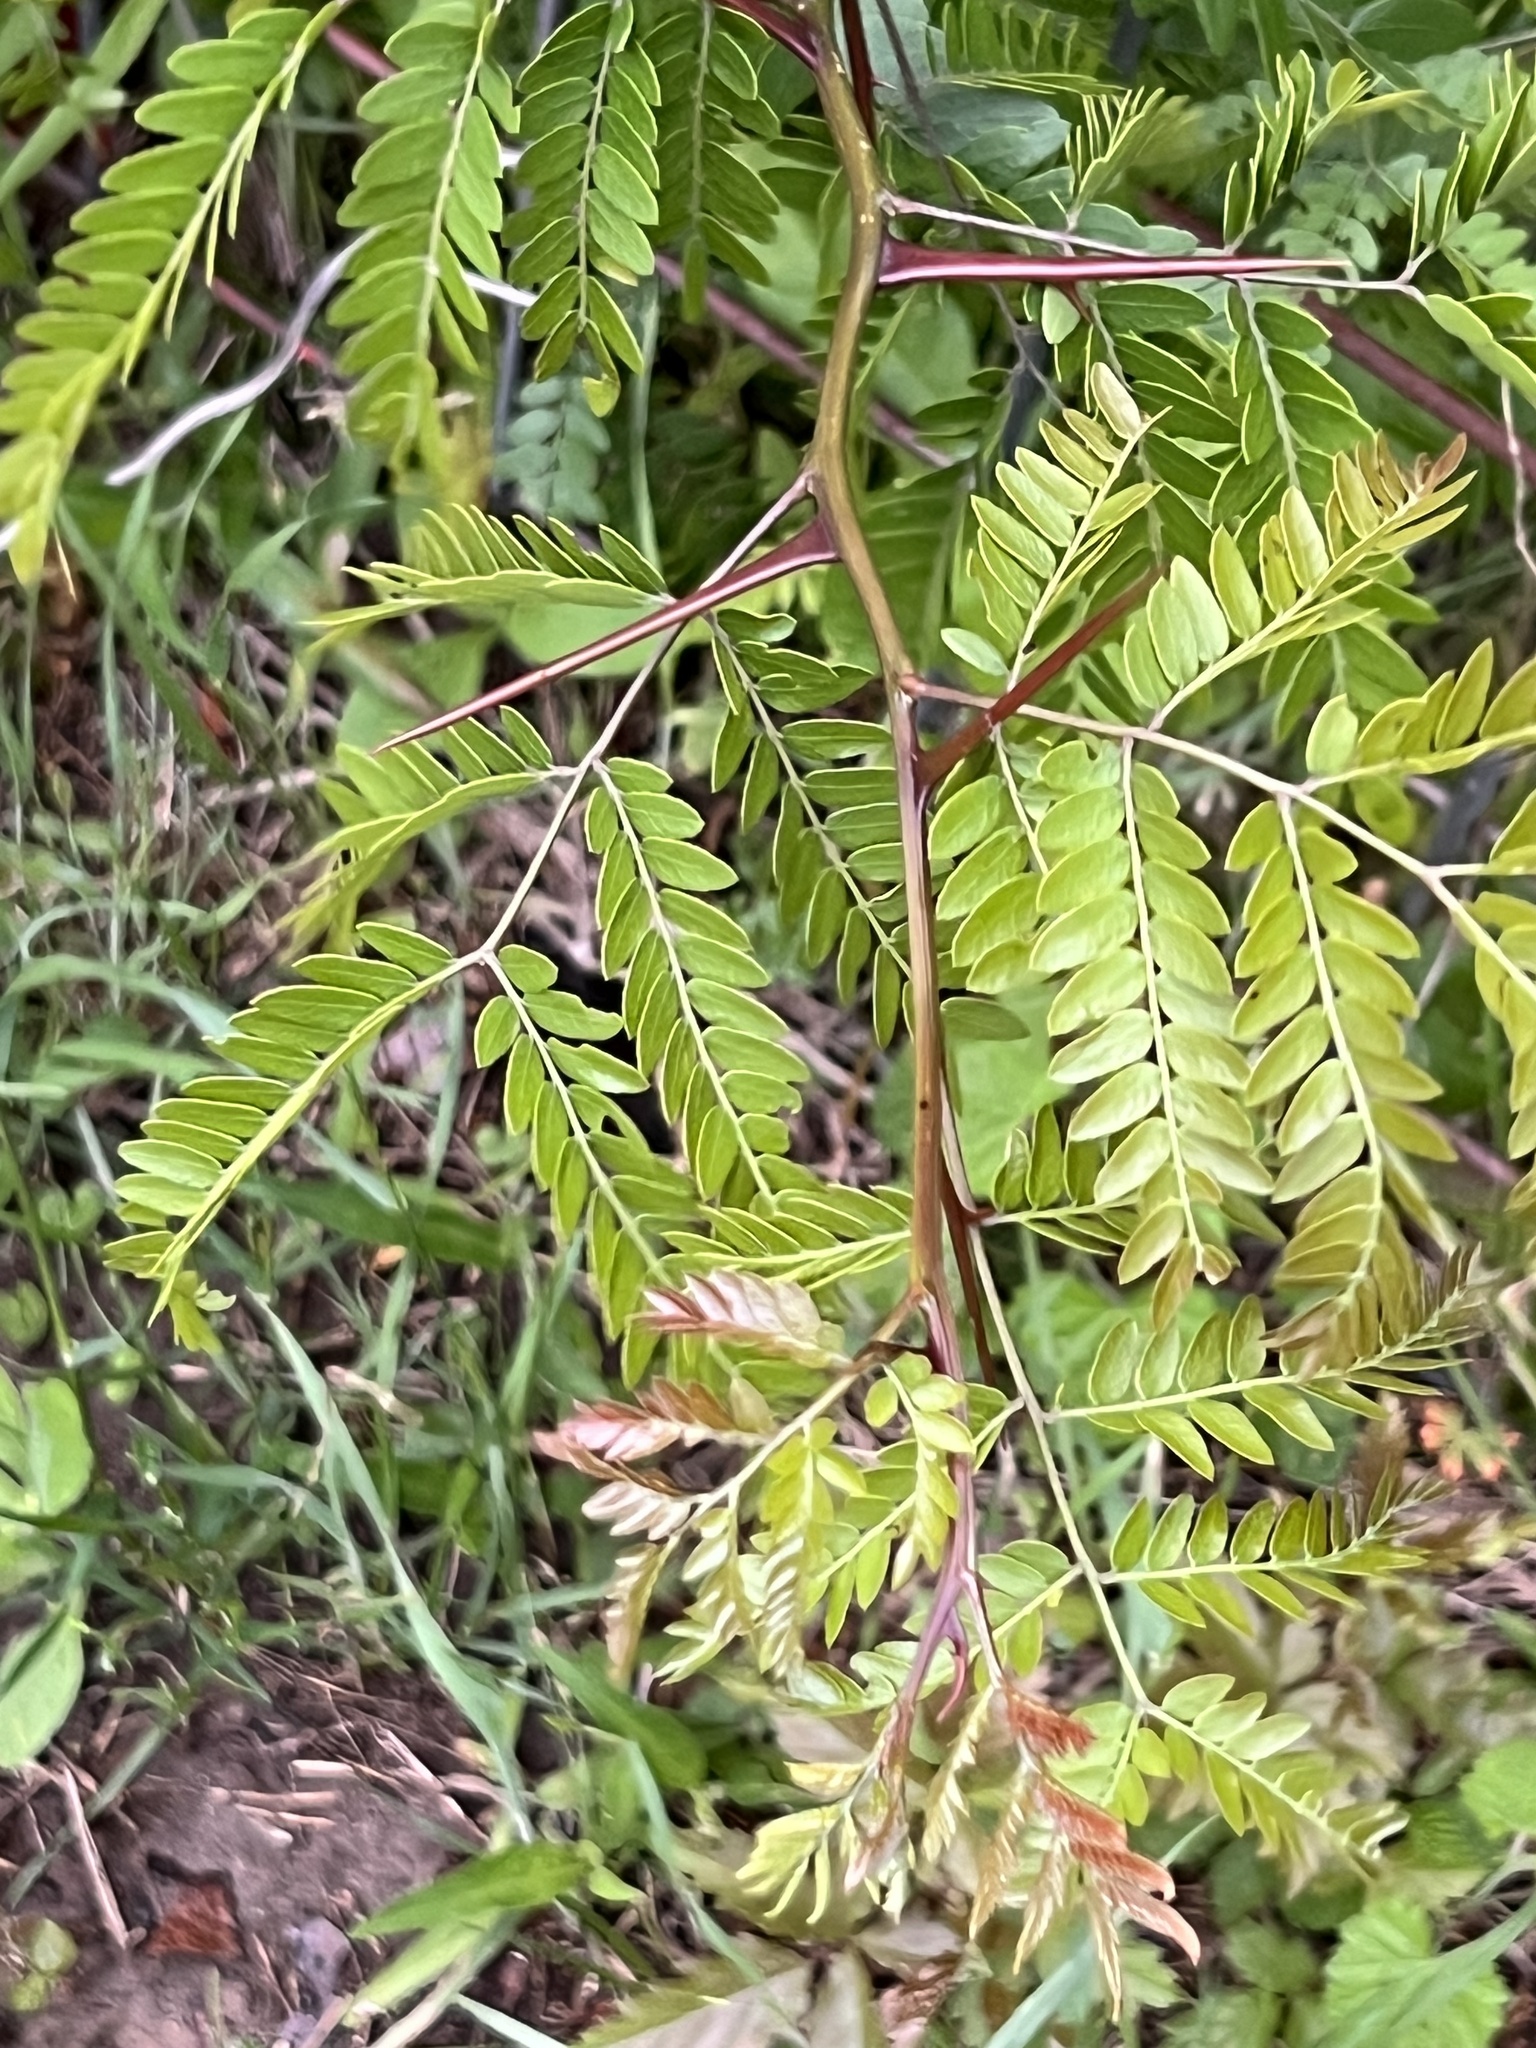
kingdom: Plantae
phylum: Tracheophyta
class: Magnoliopsida
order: Fabales
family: Fabaceae
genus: Gleditsia
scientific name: Gleditsia triacanthos
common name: Common honeylocust
